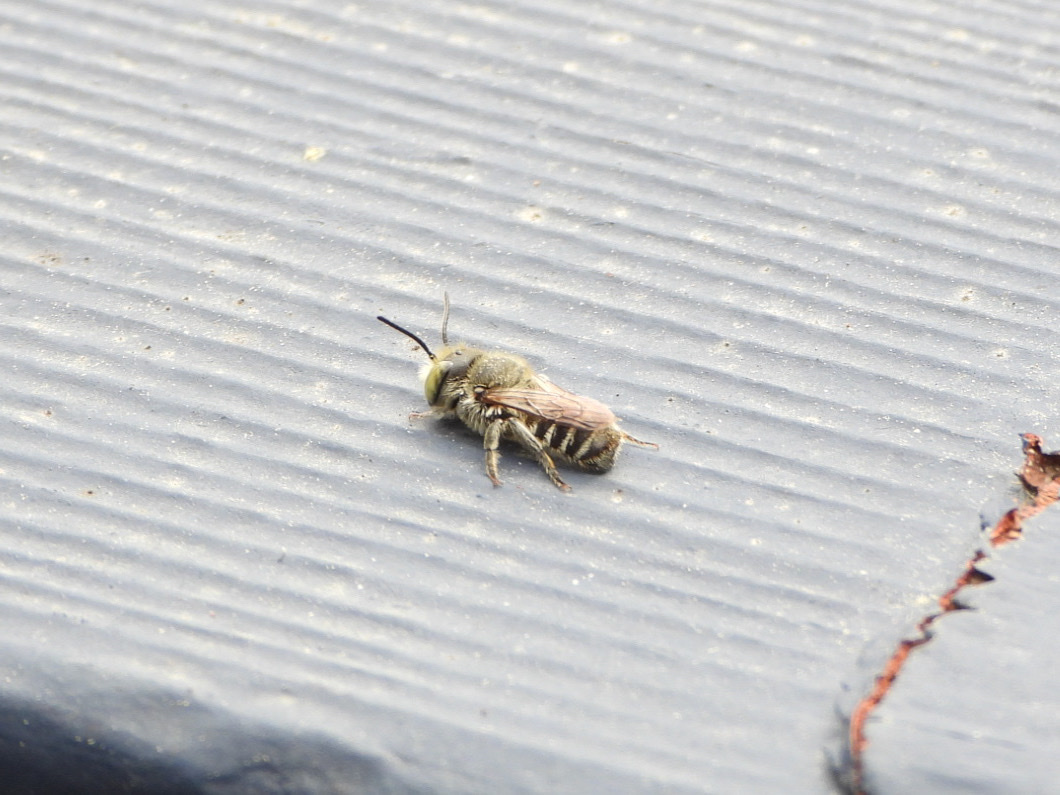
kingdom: Animalia
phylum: Arthropoda
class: Insecta
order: Hymenoptera
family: Megachilidae
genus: Megachile
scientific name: Megachile rotundata
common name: Alfalfa leafcutting bee
